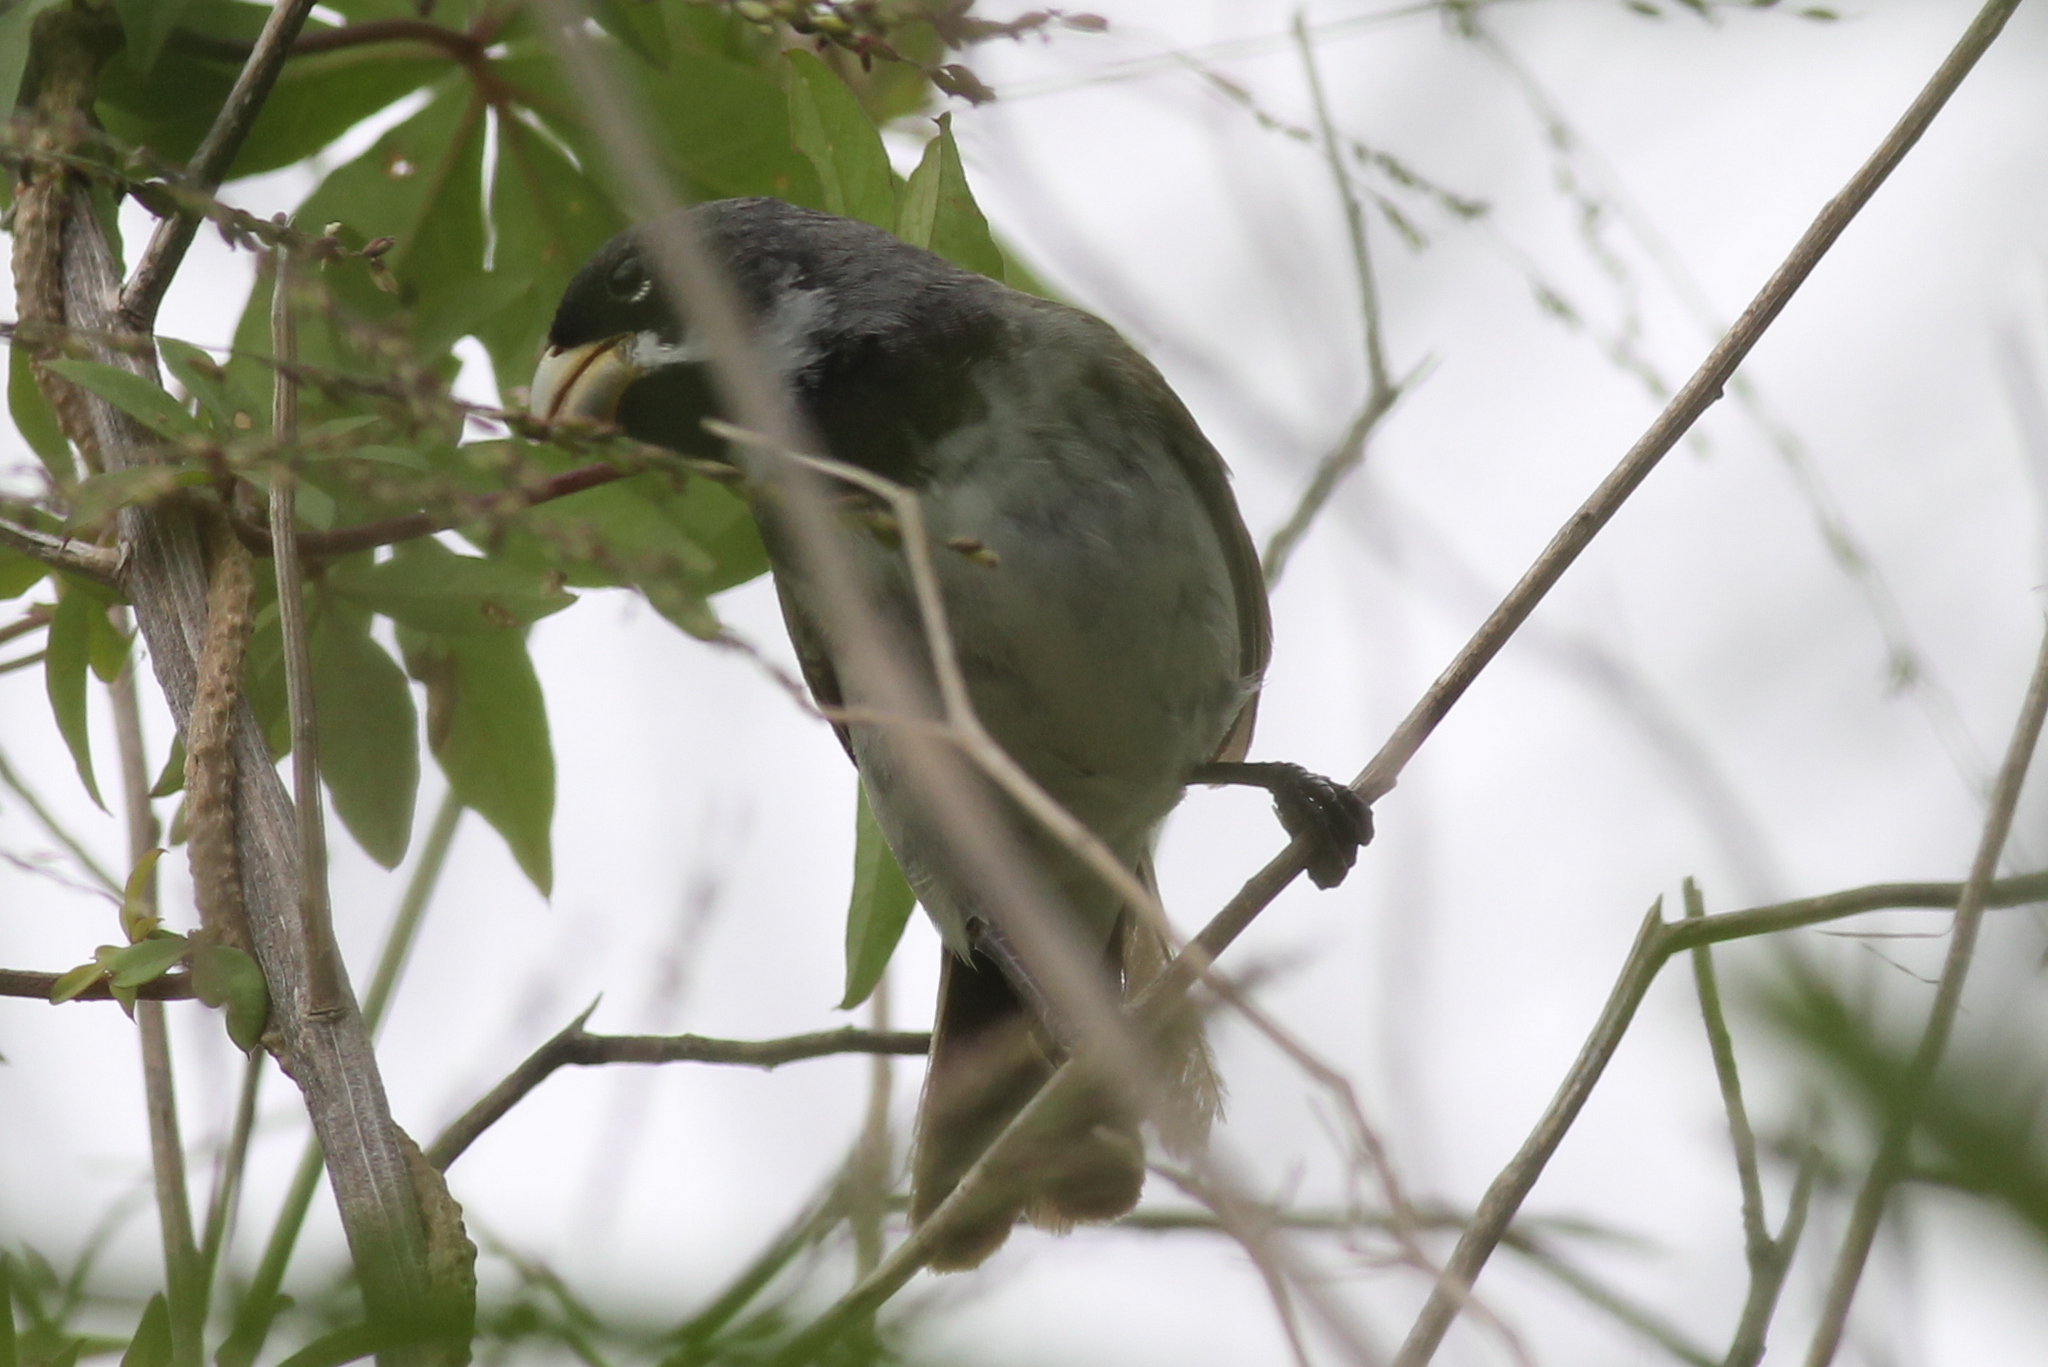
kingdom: Animalia
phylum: Chordata
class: Aves
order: Passeriformes
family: Thraupidae
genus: Sporophila
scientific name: Sporophila caerulescens
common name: Double-collared seedeater
